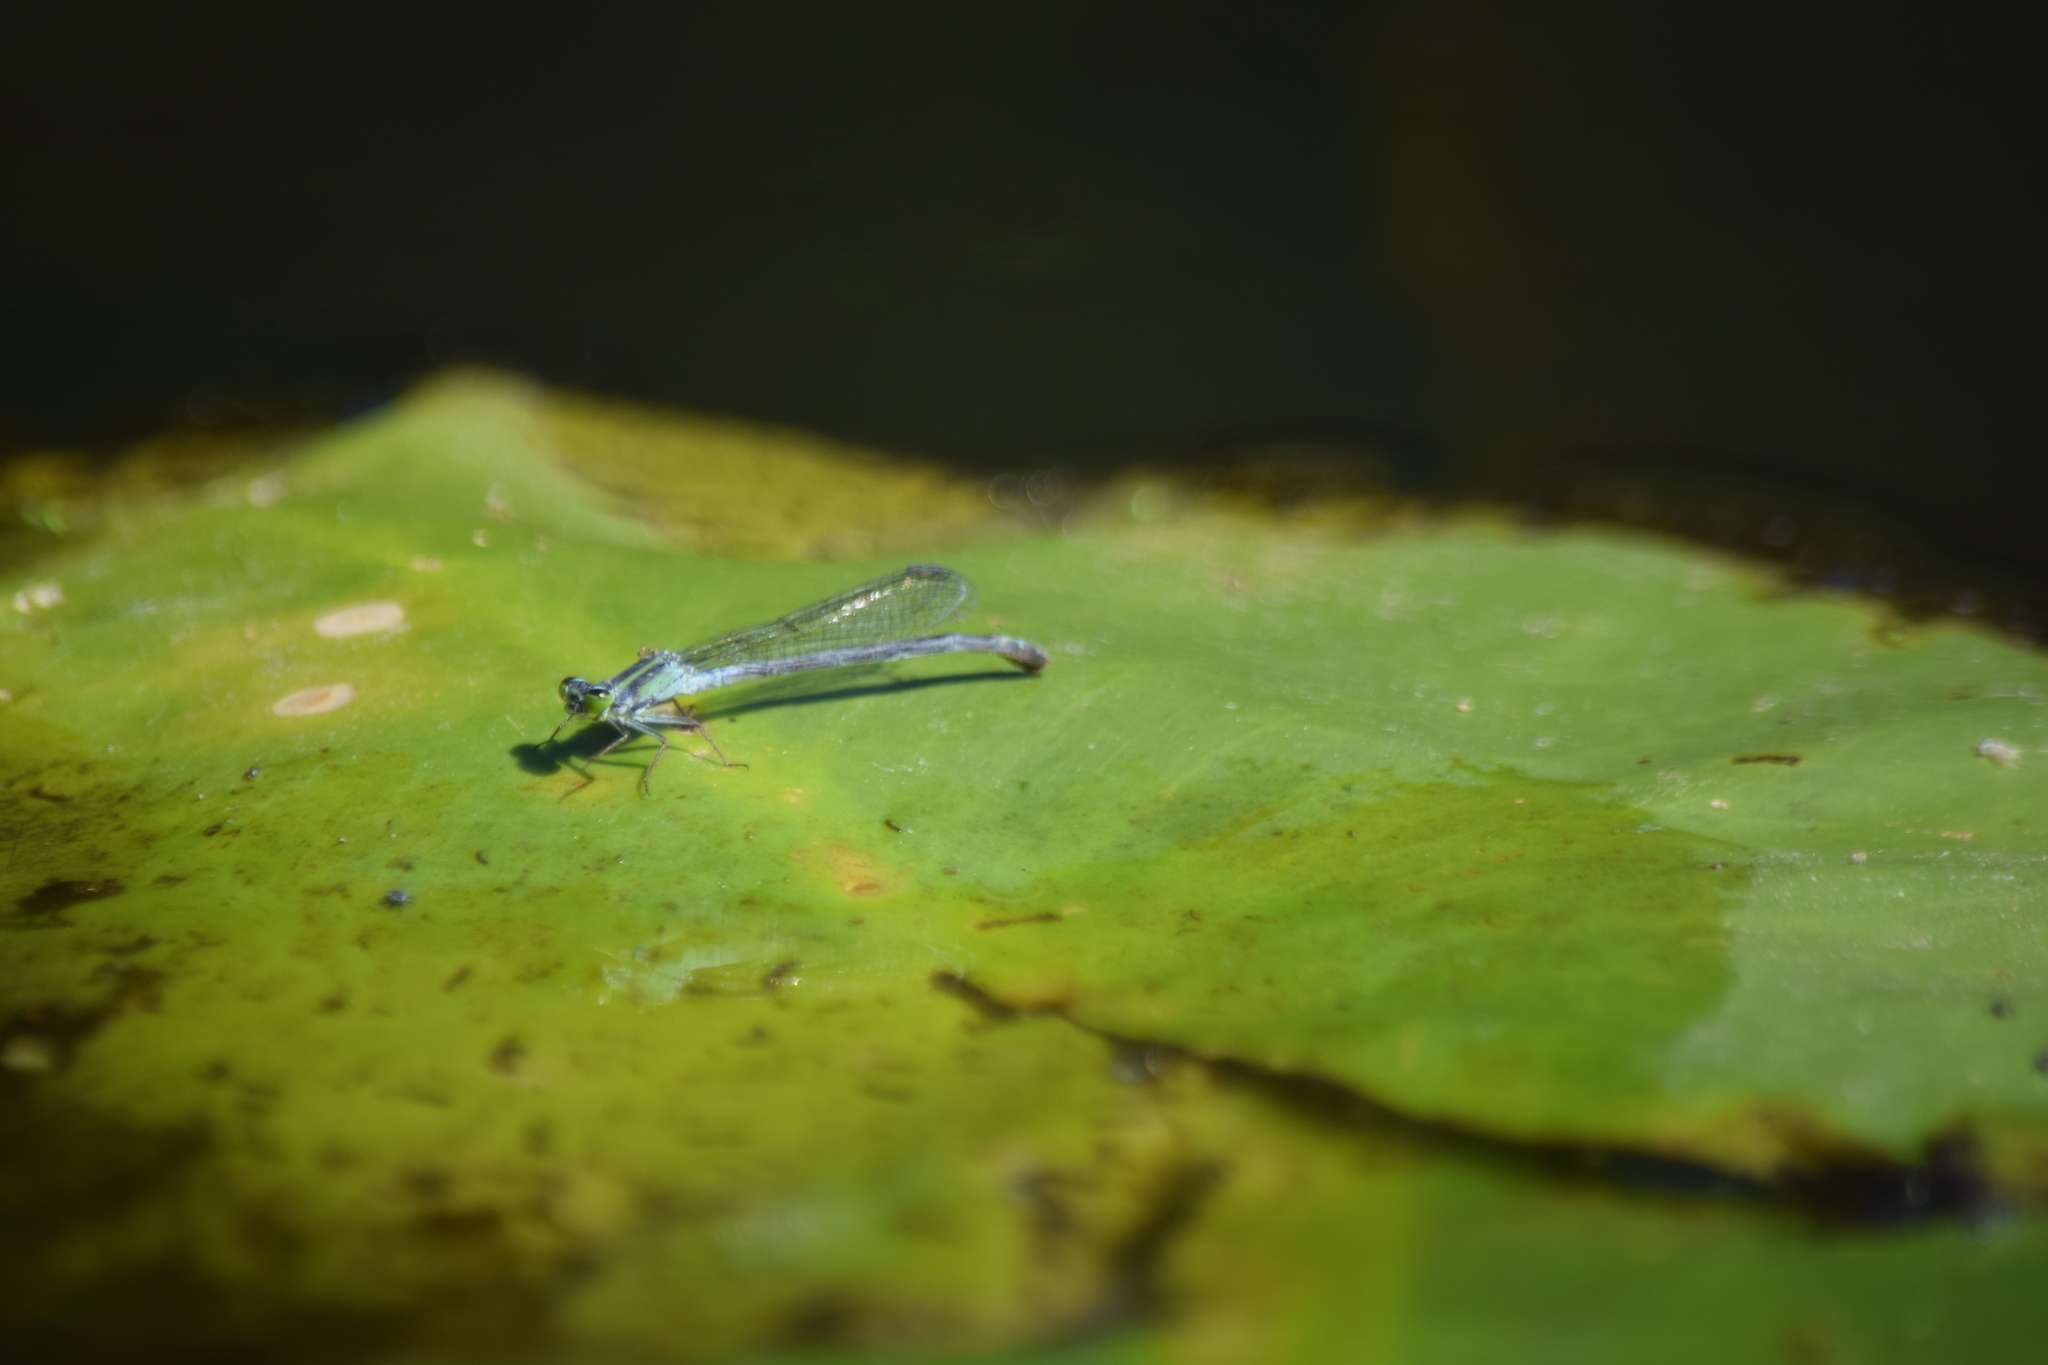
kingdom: Animalia
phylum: Arthropoda
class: Insecta
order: Odonata
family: Coenagrionidae
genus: Ischnura
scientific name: Ischnura kellicotti
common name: Lilypad forktail
